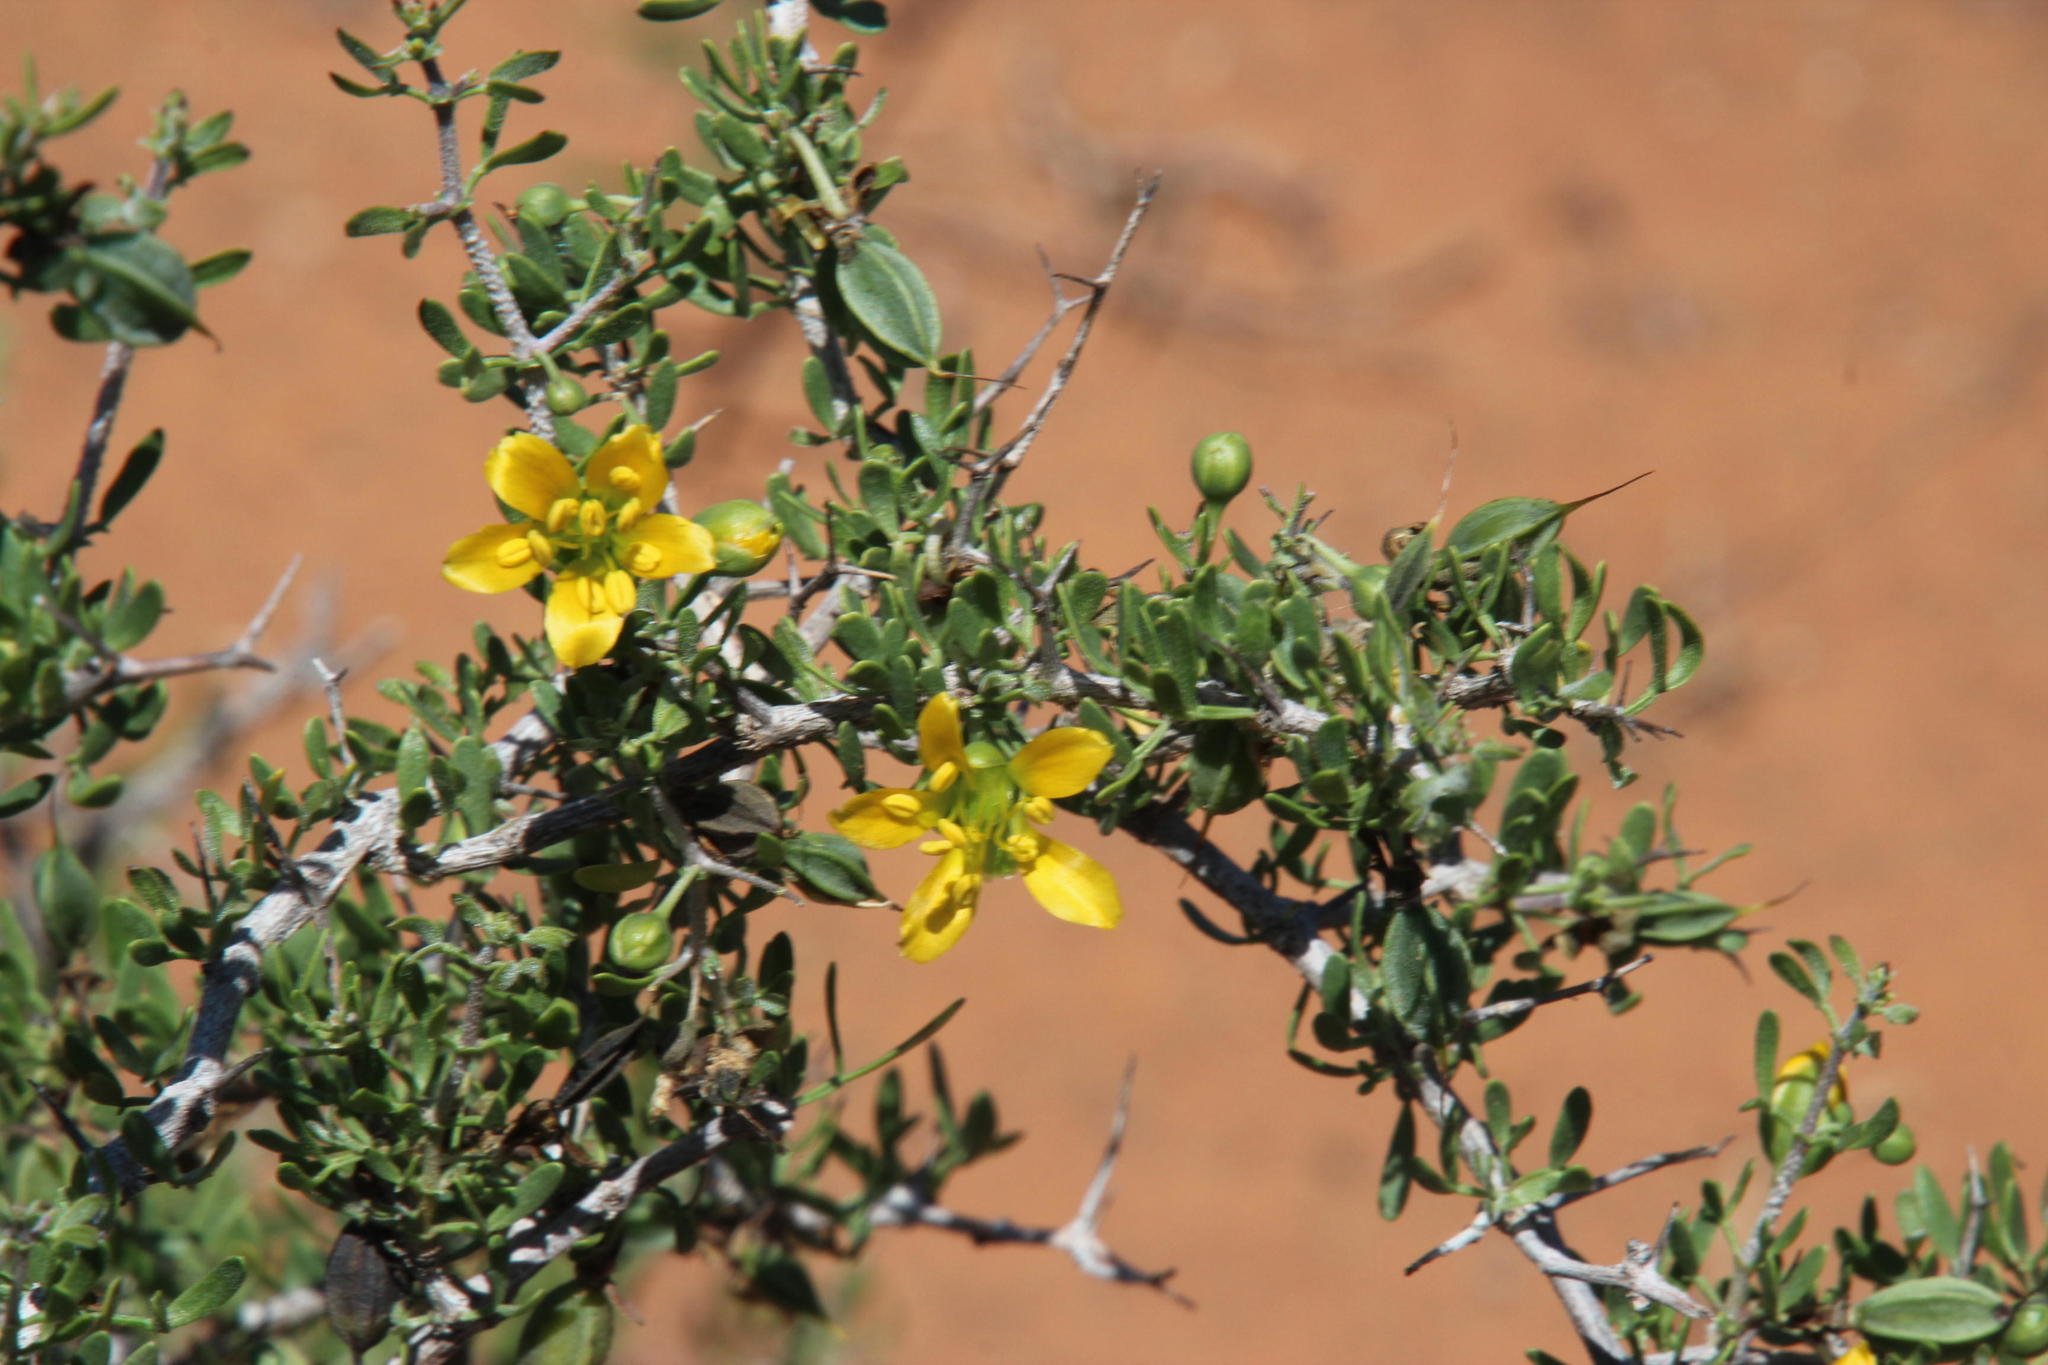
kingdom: Plantae
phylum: Tracheophyta
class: Magnoliopsida
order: Zygophyllales
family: Zygophyllaceae
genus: Roepera
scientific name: Roepera incrustata
